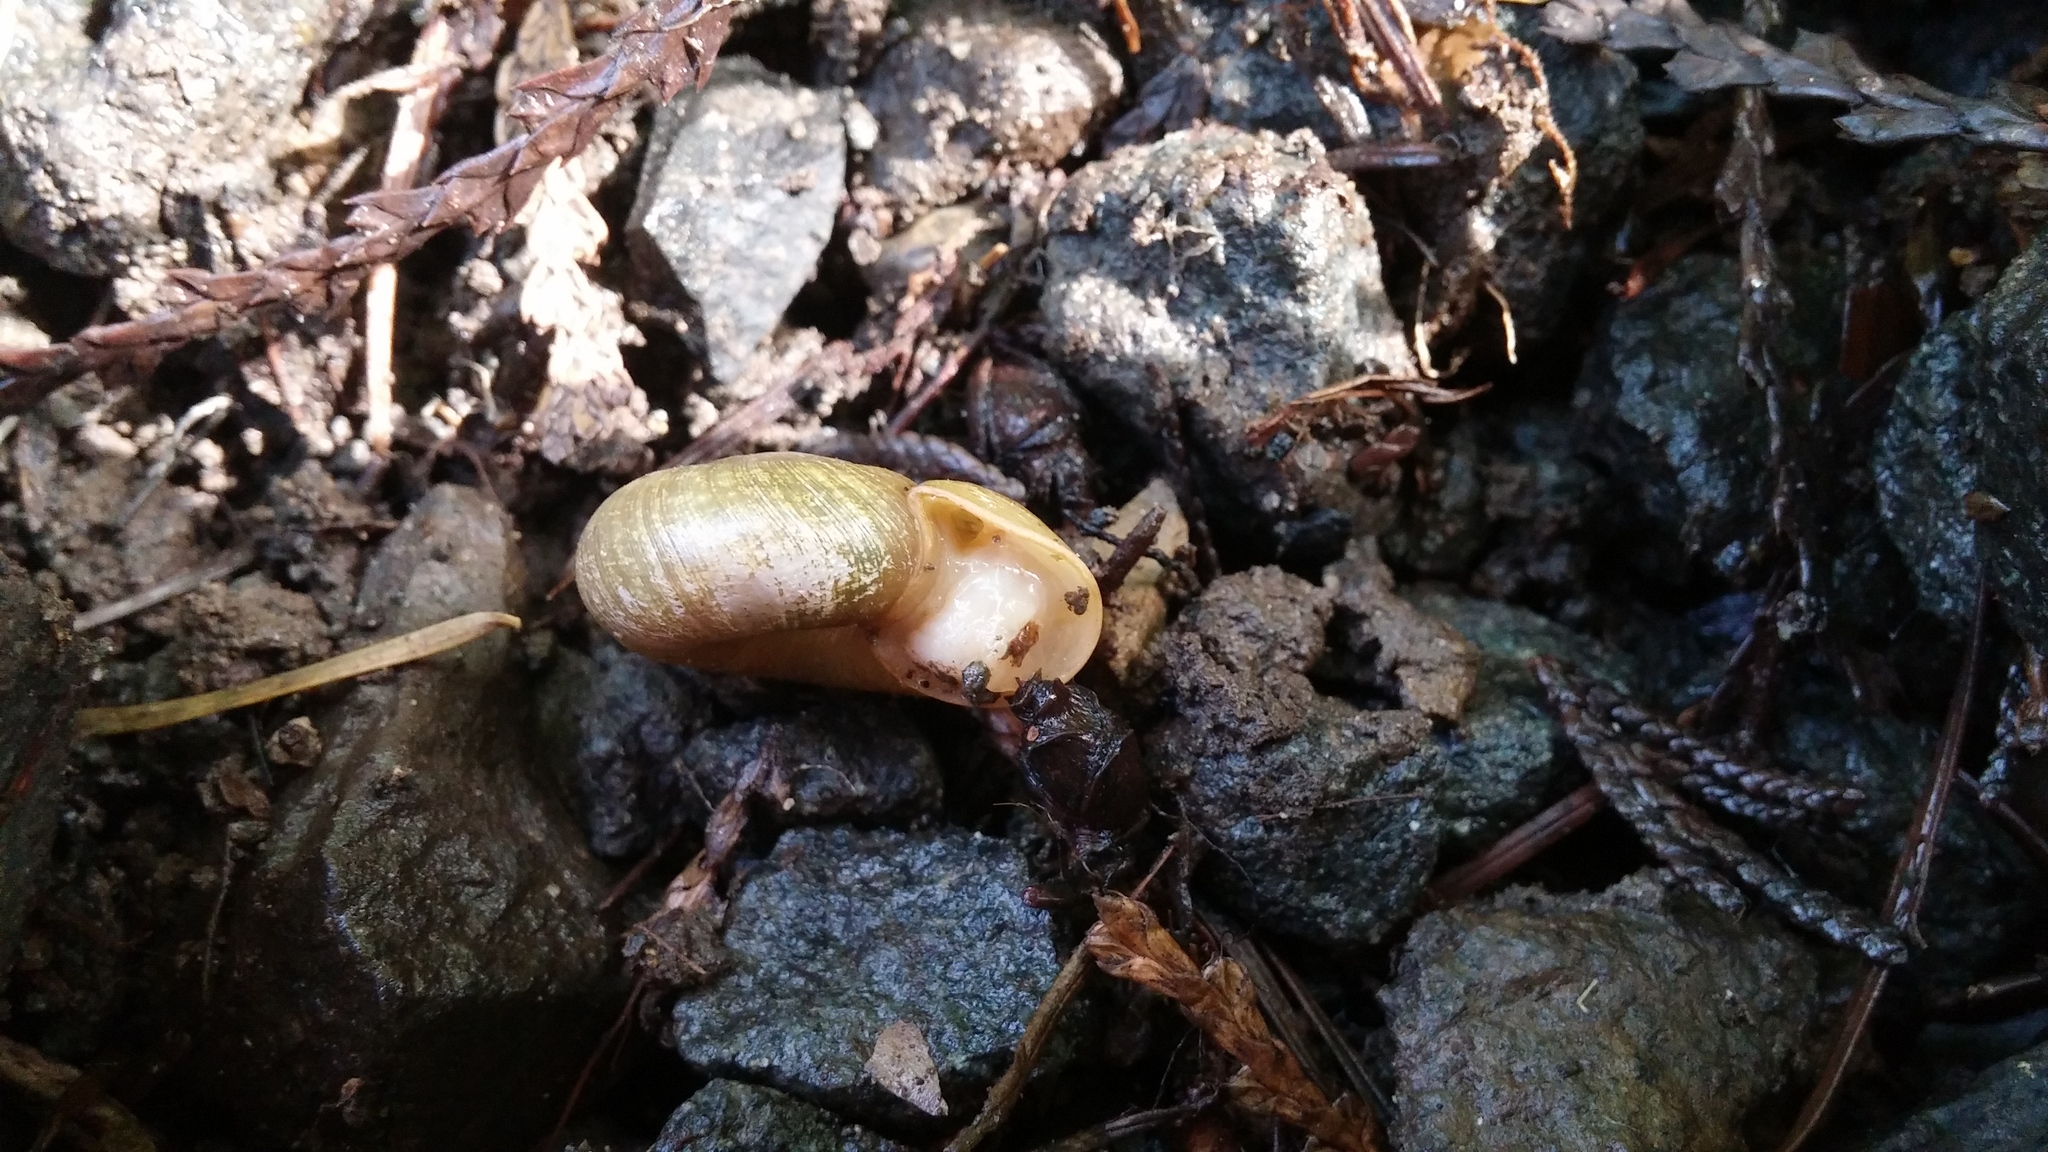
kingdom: Animalia
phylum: Mollusca
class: Gastropoda
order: Stylommatophora
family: Haplotrematidae
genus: Ancotrema
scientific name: Ancotrema sportella
